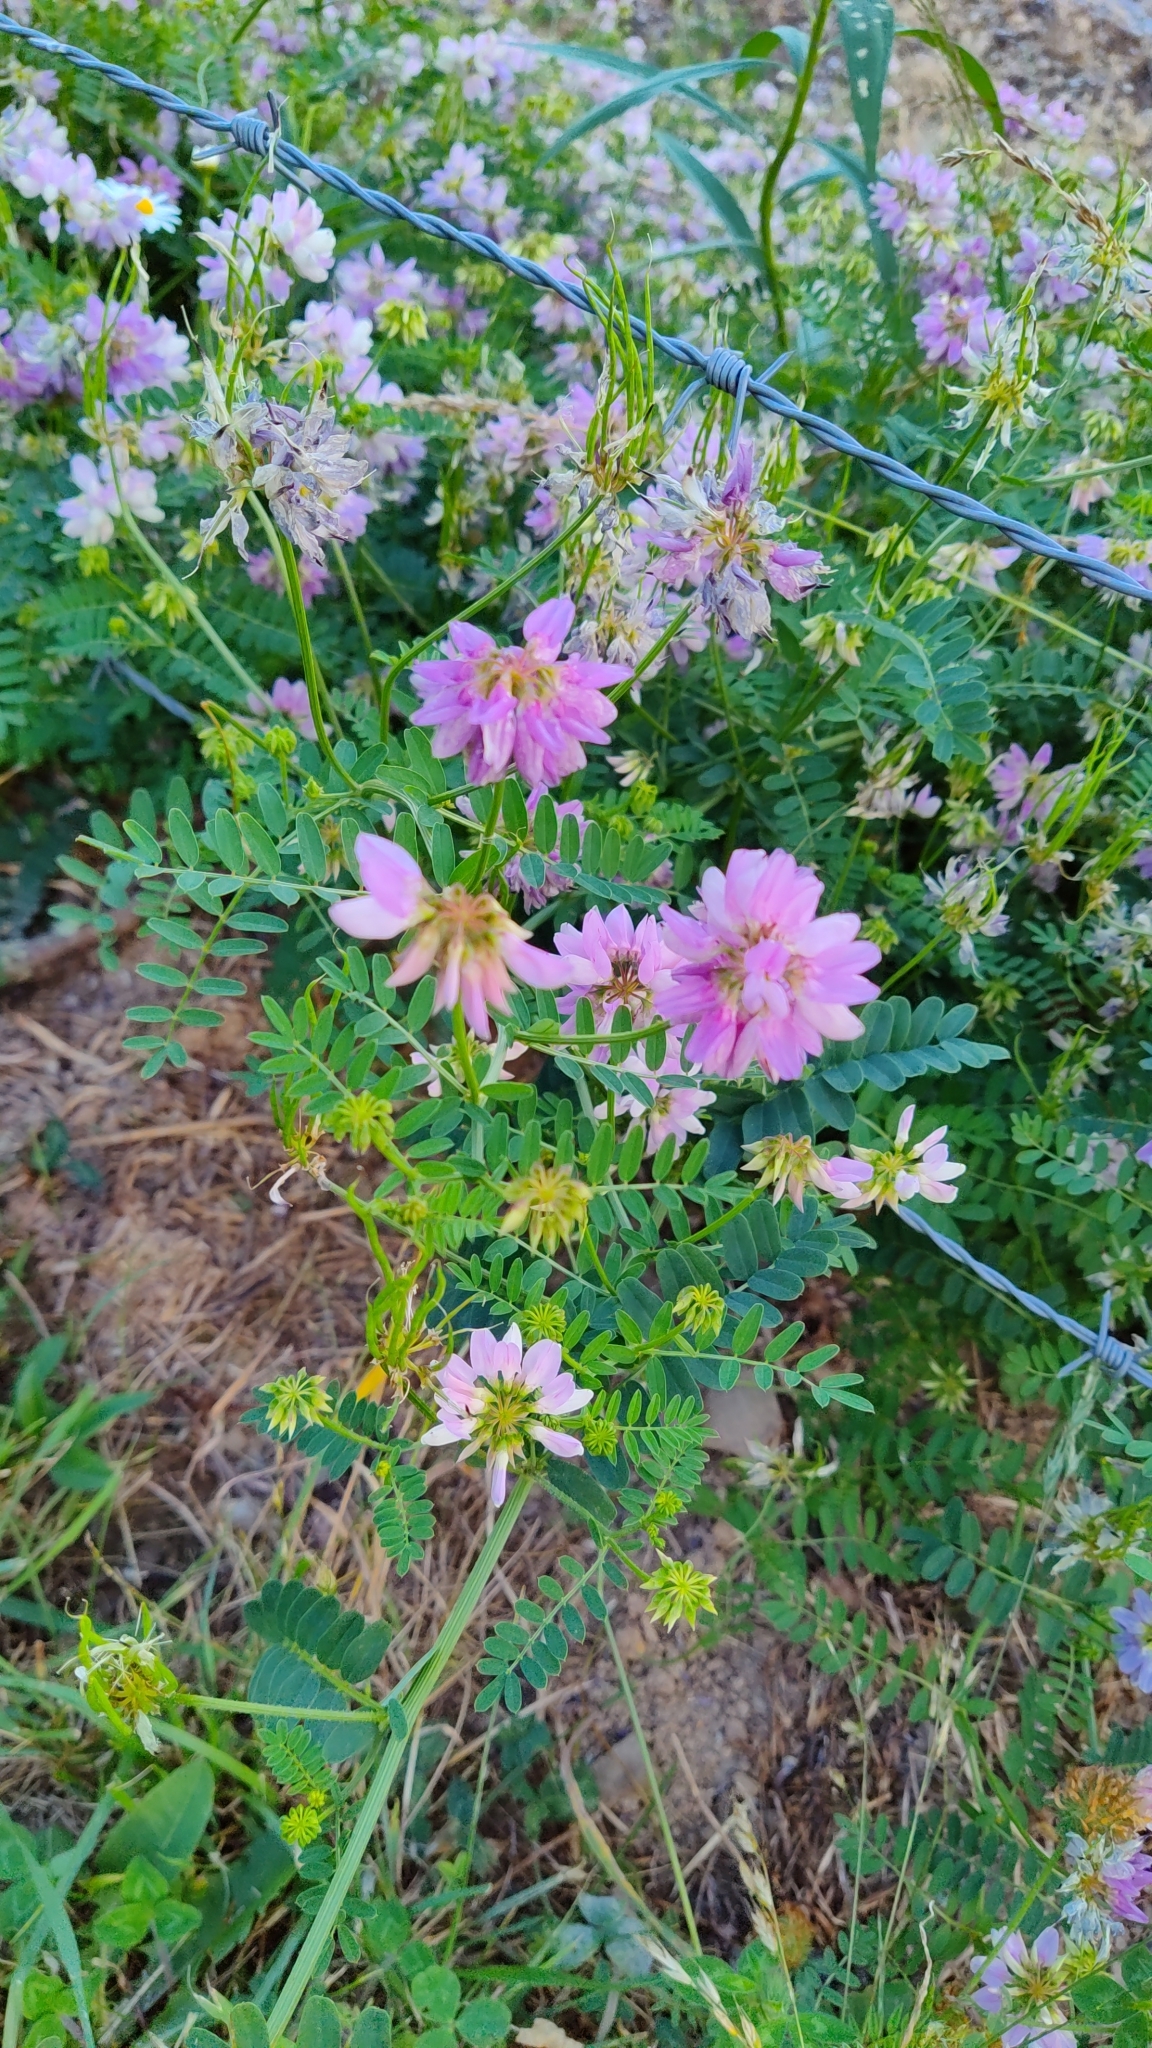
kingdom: Plantae
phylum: Tracheophyta
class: Magnoliopsida
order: Fabales
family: Fabaceae
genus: Coronilla
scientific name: Coronilla varia
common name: Crownvetch
